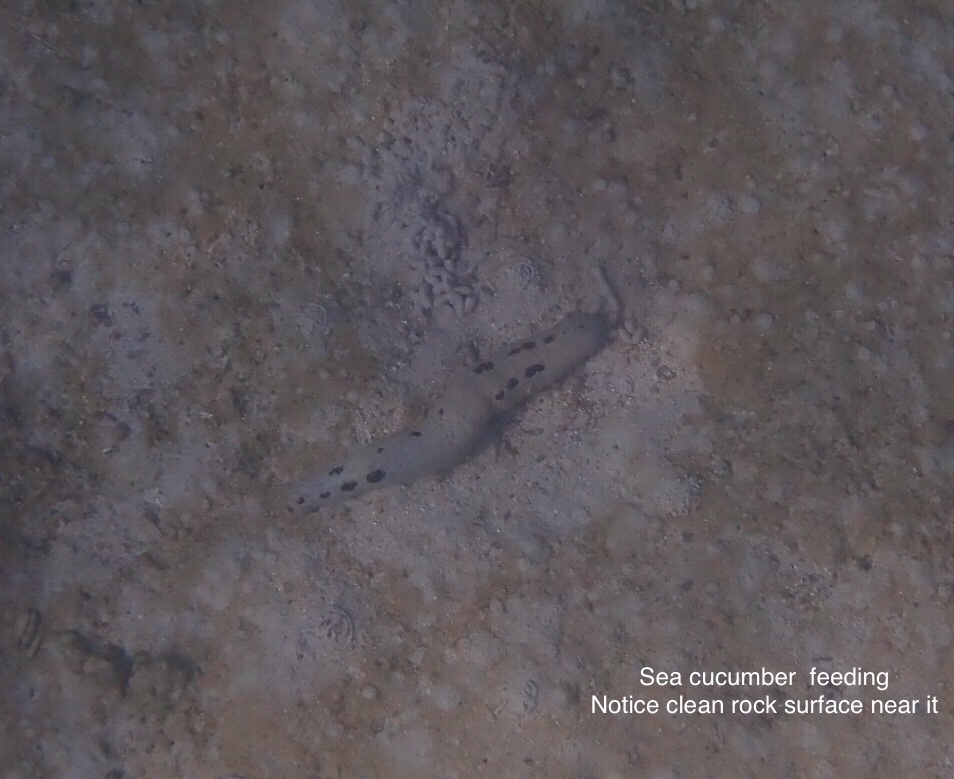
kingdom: Animalia
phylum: Echinodermata
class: Holothuroidea
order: Holothuriida
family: Holothuriidae
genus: Holothuria
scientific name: Holothuria atra
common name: Lollyfish
